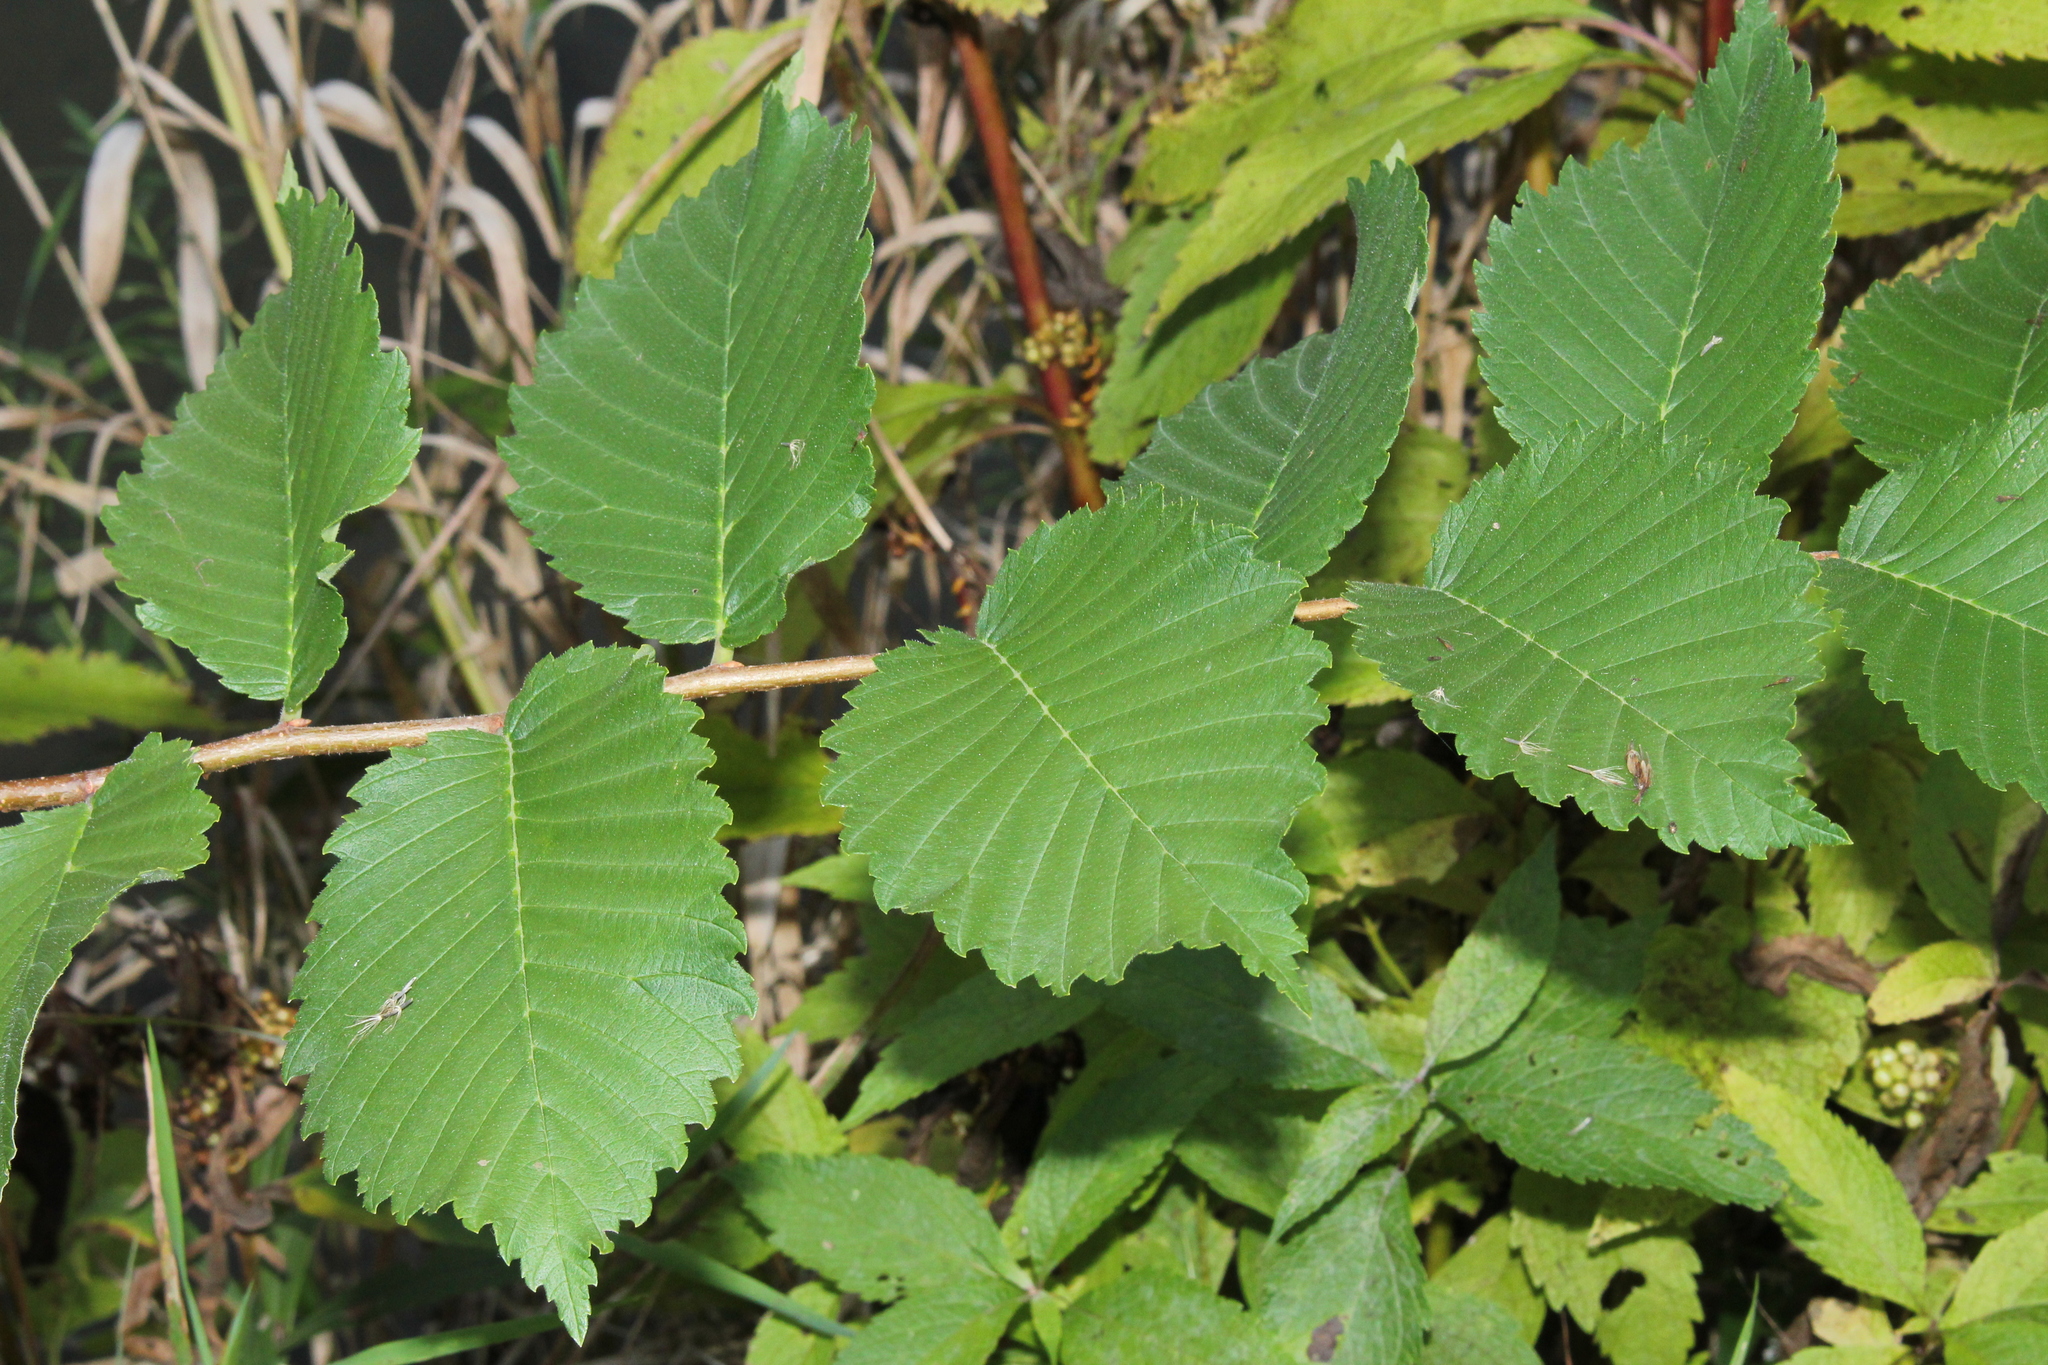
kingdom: Plantae
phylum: Tracheophyta
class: Magnoliopsida
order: Rosales
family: Ulmaceae
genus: Ulmus
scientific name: Ulmus americana
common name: American elm
